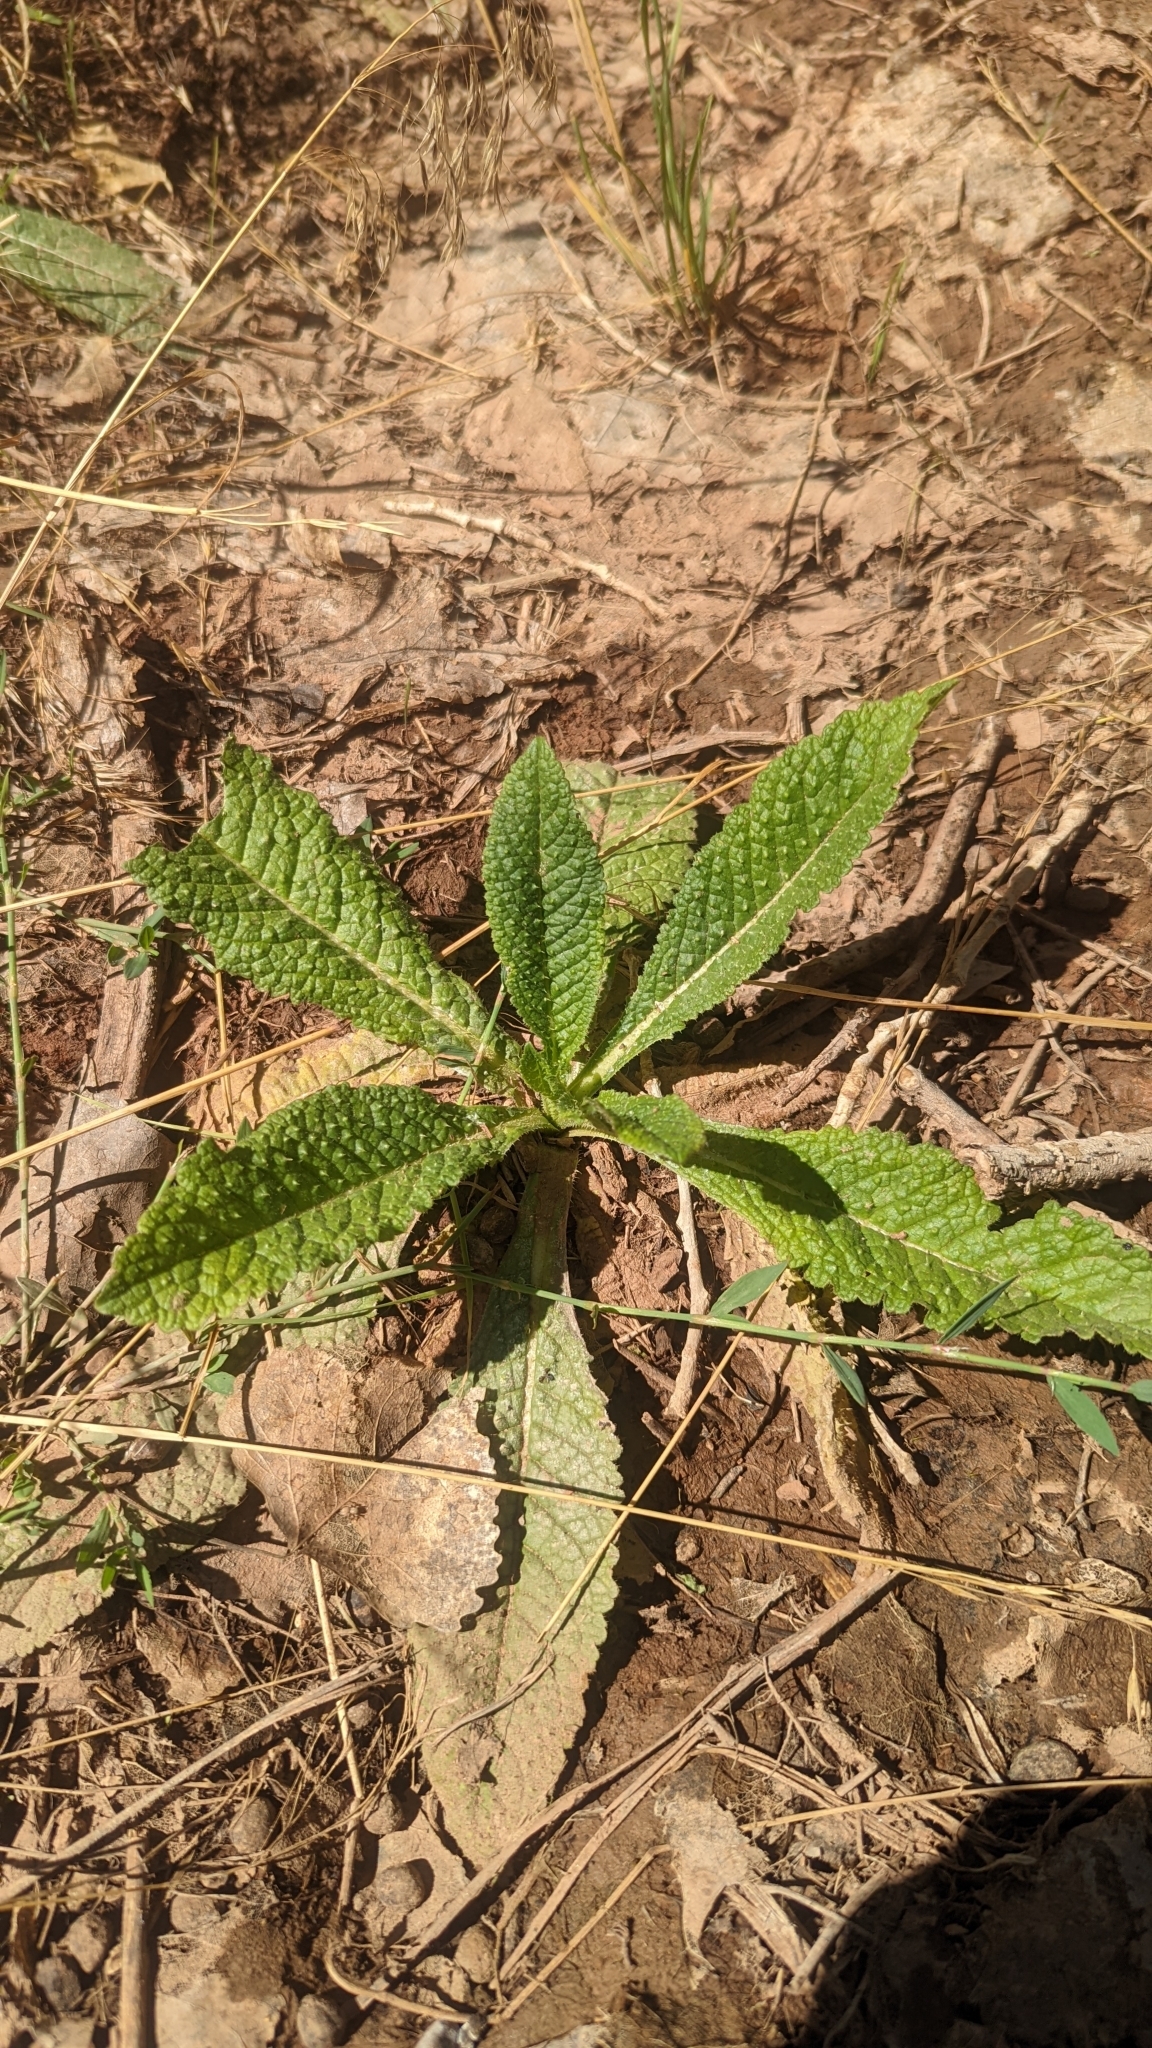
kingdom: Plantae
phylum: Tracheophyta
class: Magnoliopsida
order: Dipsacales
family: Caprifoliaceae
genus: Dipsacus
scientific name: Dipsacus fullonum
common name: Teasel
